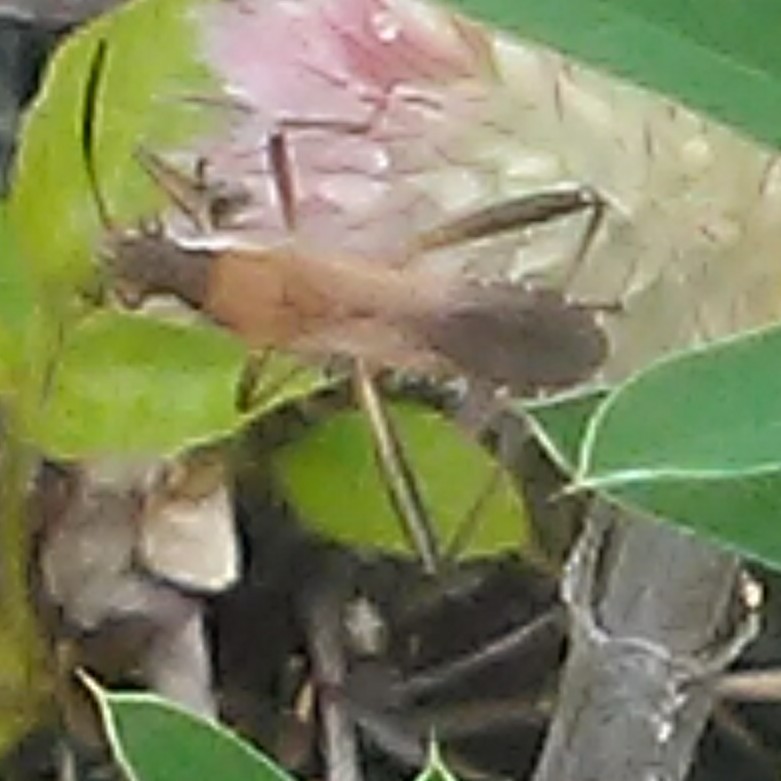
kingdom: Animalia
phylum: Arthropoda
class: Insecta
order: Hemiptera
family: Alydidae
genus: Alydus
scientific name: Alydus pilosulus
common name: Broad-headed bug
